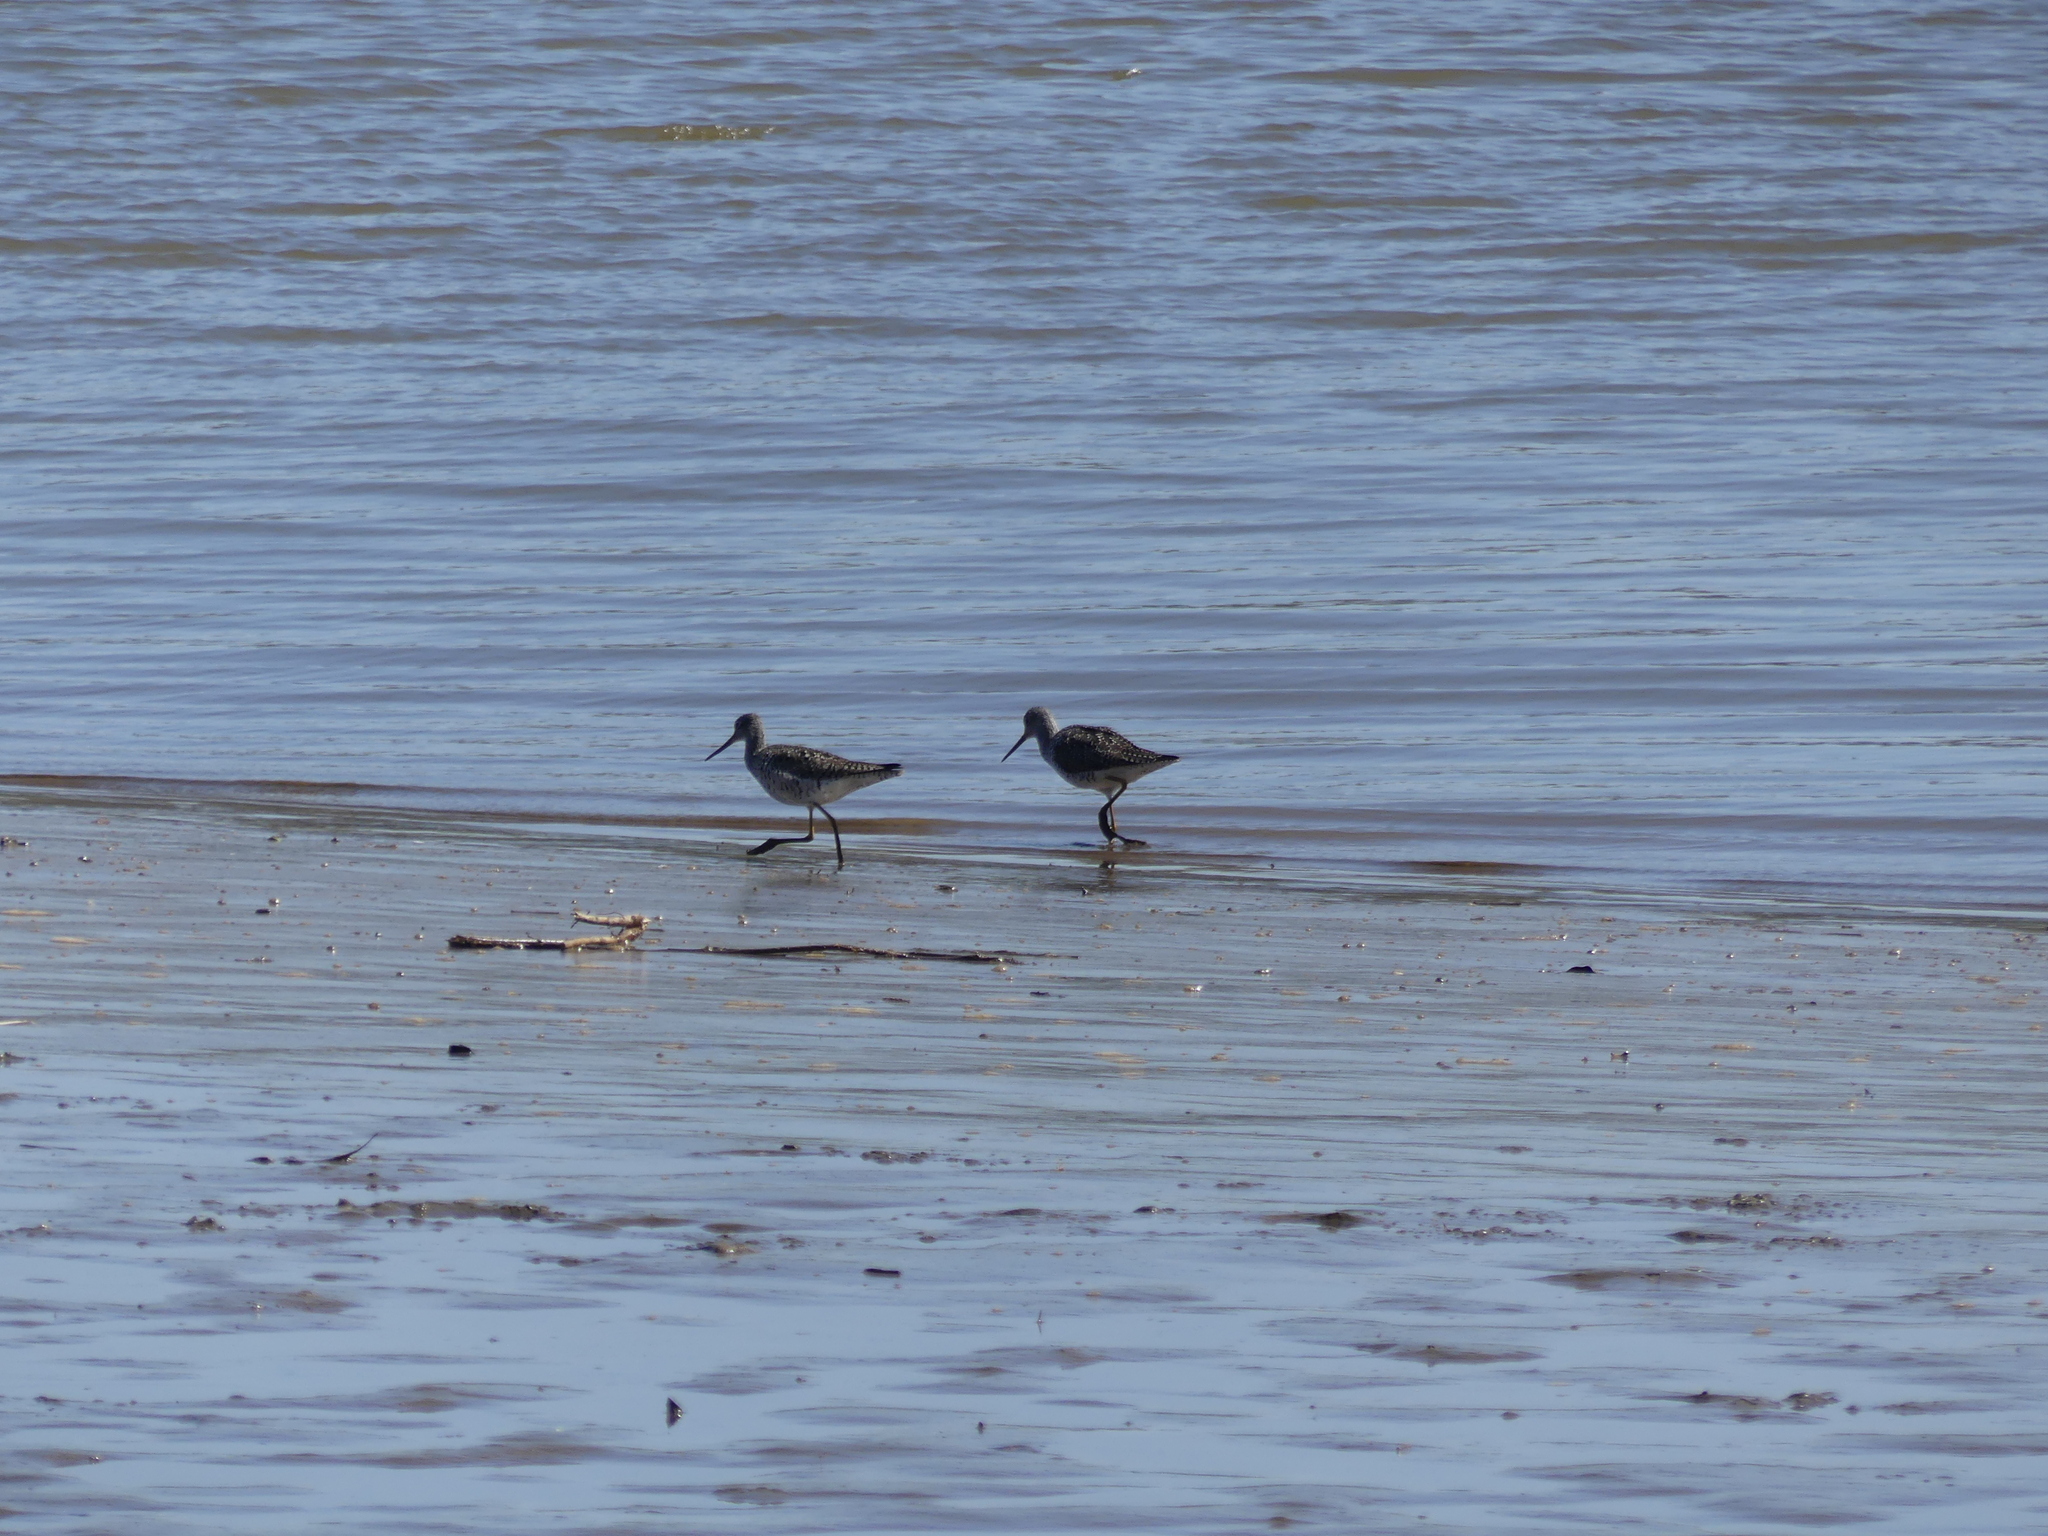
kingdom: Animalia
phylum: Chordata
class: Aves
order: Charadriiformes
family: Scolopacidae
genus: Tringa
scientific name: Tringa melanoleuca
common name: Greater yellowlegs
